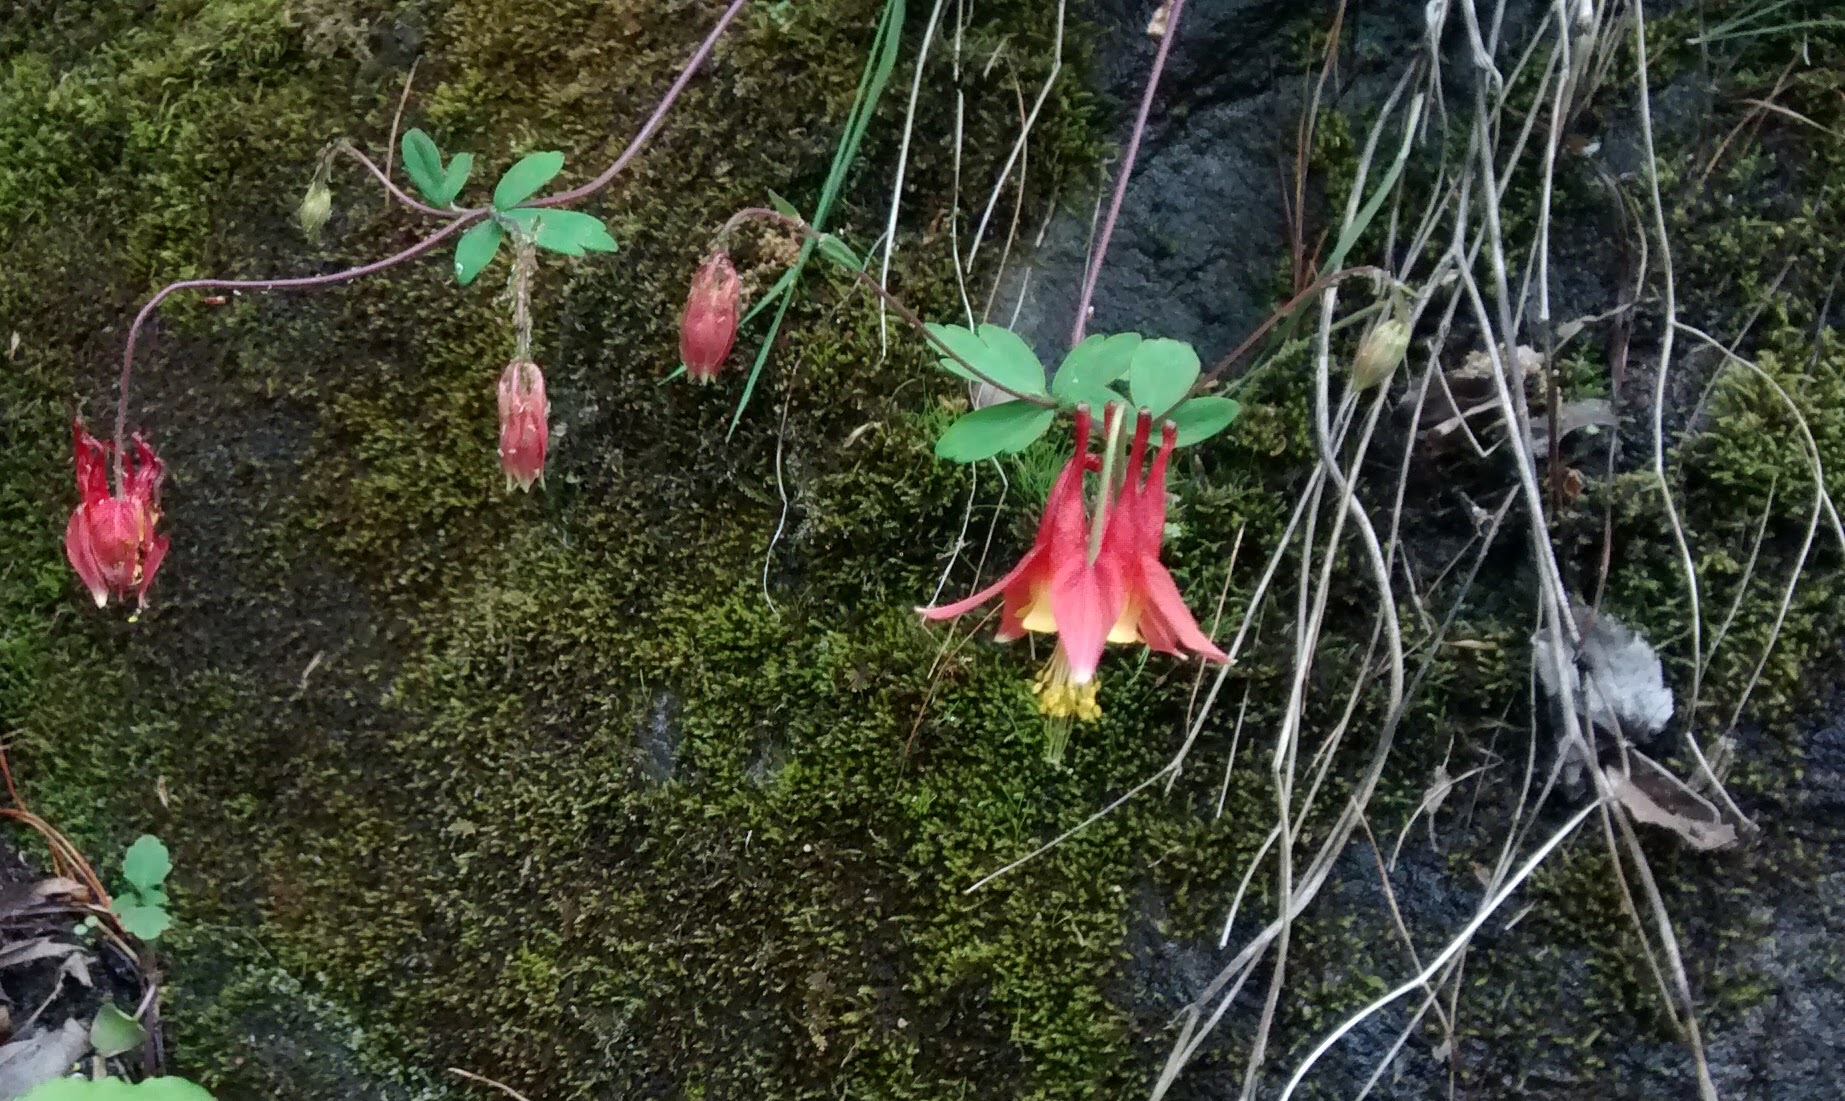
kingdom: Plantae
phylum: Tracheophyta
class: Magnoliopsida
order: Ranunculales
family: Ranunculaceae
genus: Aquilegia
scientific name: Aquilegia canadensis
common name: American columbine
